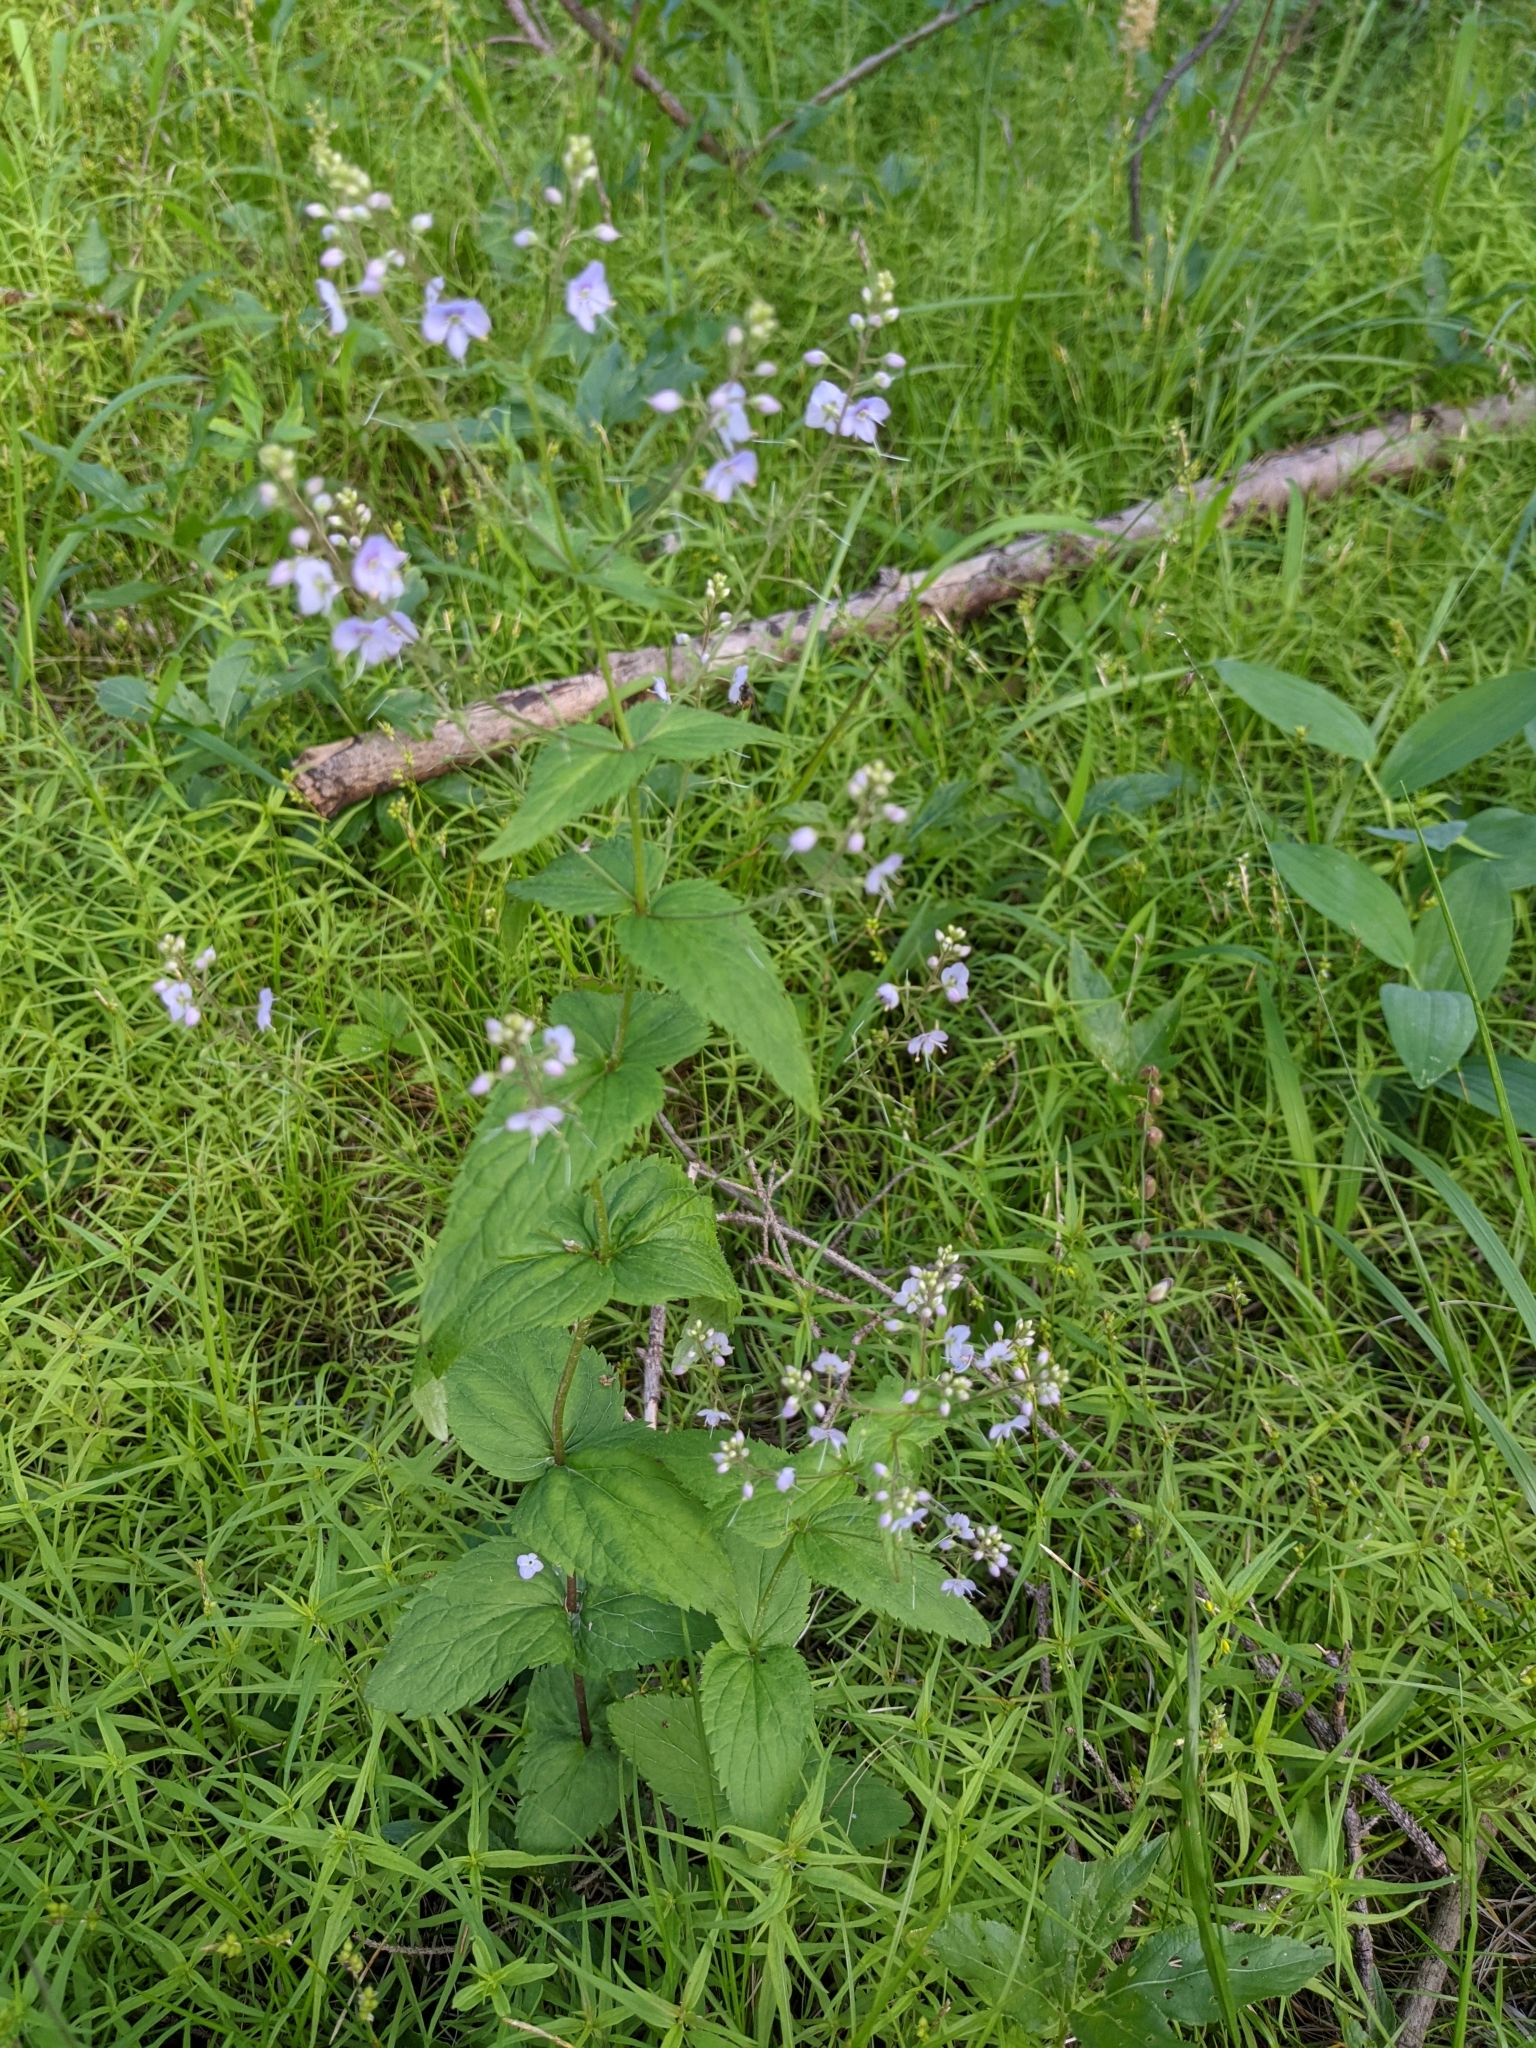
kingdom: Plantae
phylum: Tracheophyta
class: Magnoliopsida
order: Lamiales
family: Plantaginaceae
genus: Veronica
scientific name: Veronica urticifolia
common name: Nettle-leaf speedwell
